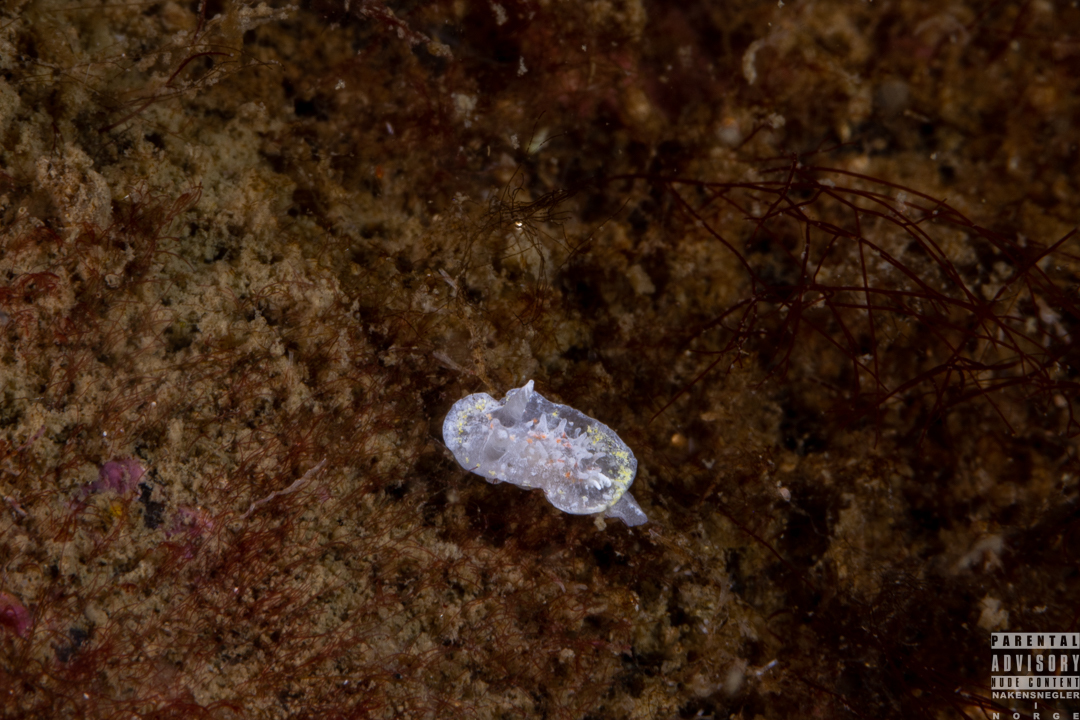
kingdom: Animalia
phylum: Mollusca
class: Gastropoda
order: Nudibranchia
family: Calycidorididae
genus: Diaphorodoris
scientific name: Diaphorodoris luteocincta
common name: Fried egg nudibranch
